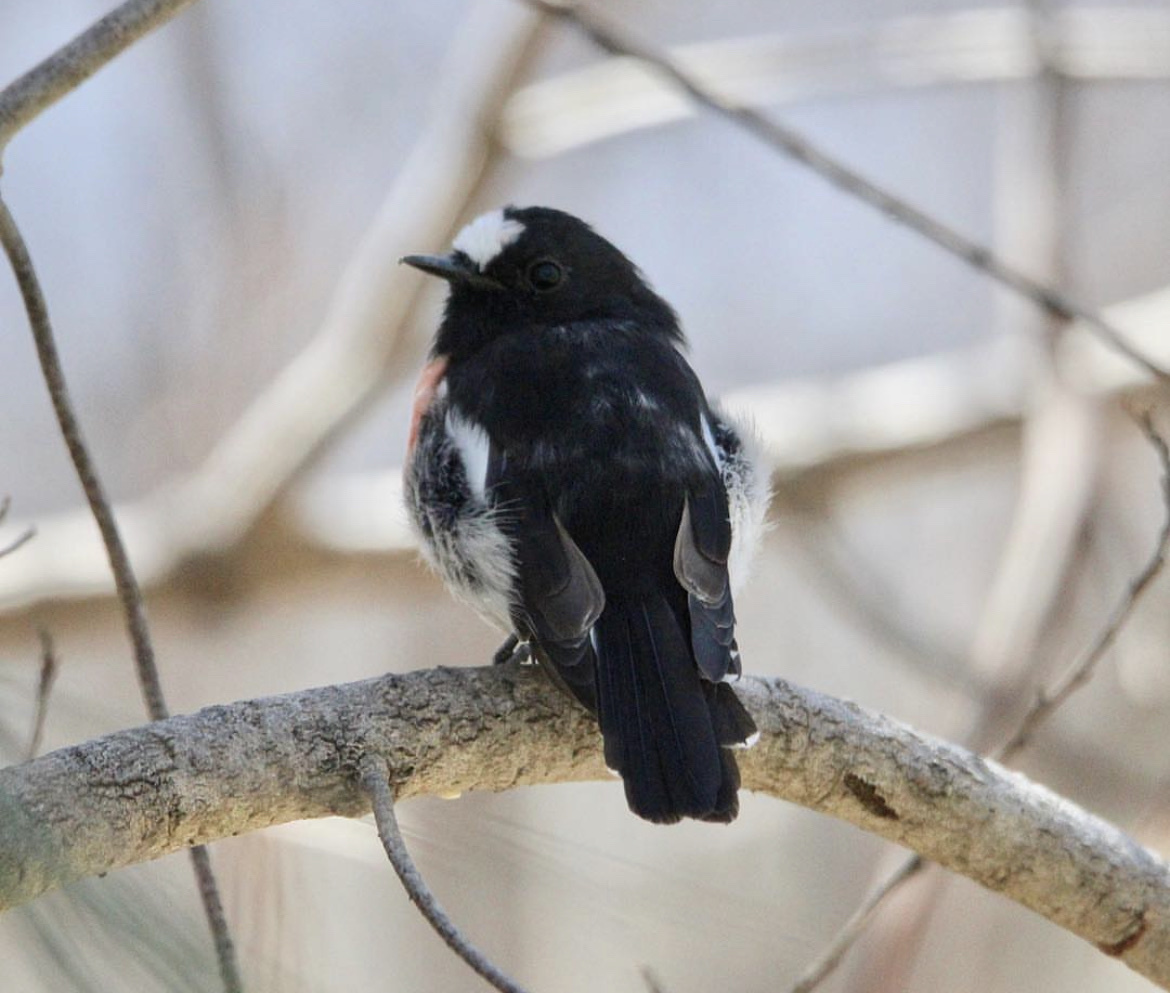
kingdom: Animalia
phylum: Chordata
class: Aves
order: Passeriformes
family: Petroicidae
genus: Petroica
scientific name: Petroica boodang
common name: Scarlet robin
